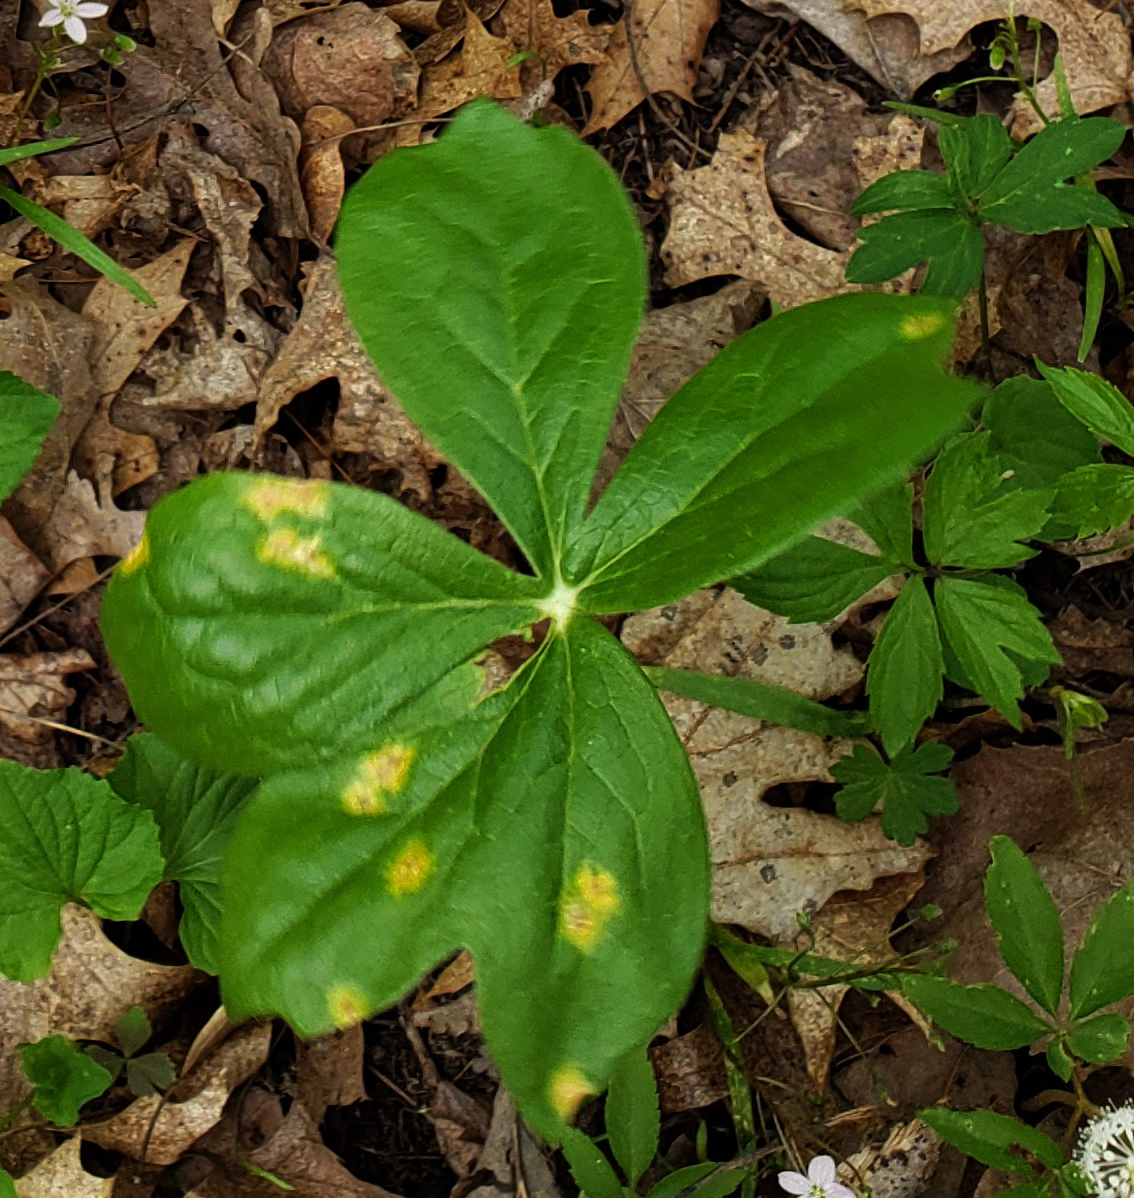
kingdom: Fungi
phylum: Basidiomycota
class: Pucciniomycetes
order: Pucciniales
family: Pucciniaceae
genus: Puccinia
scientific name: Puccinia podophylli
